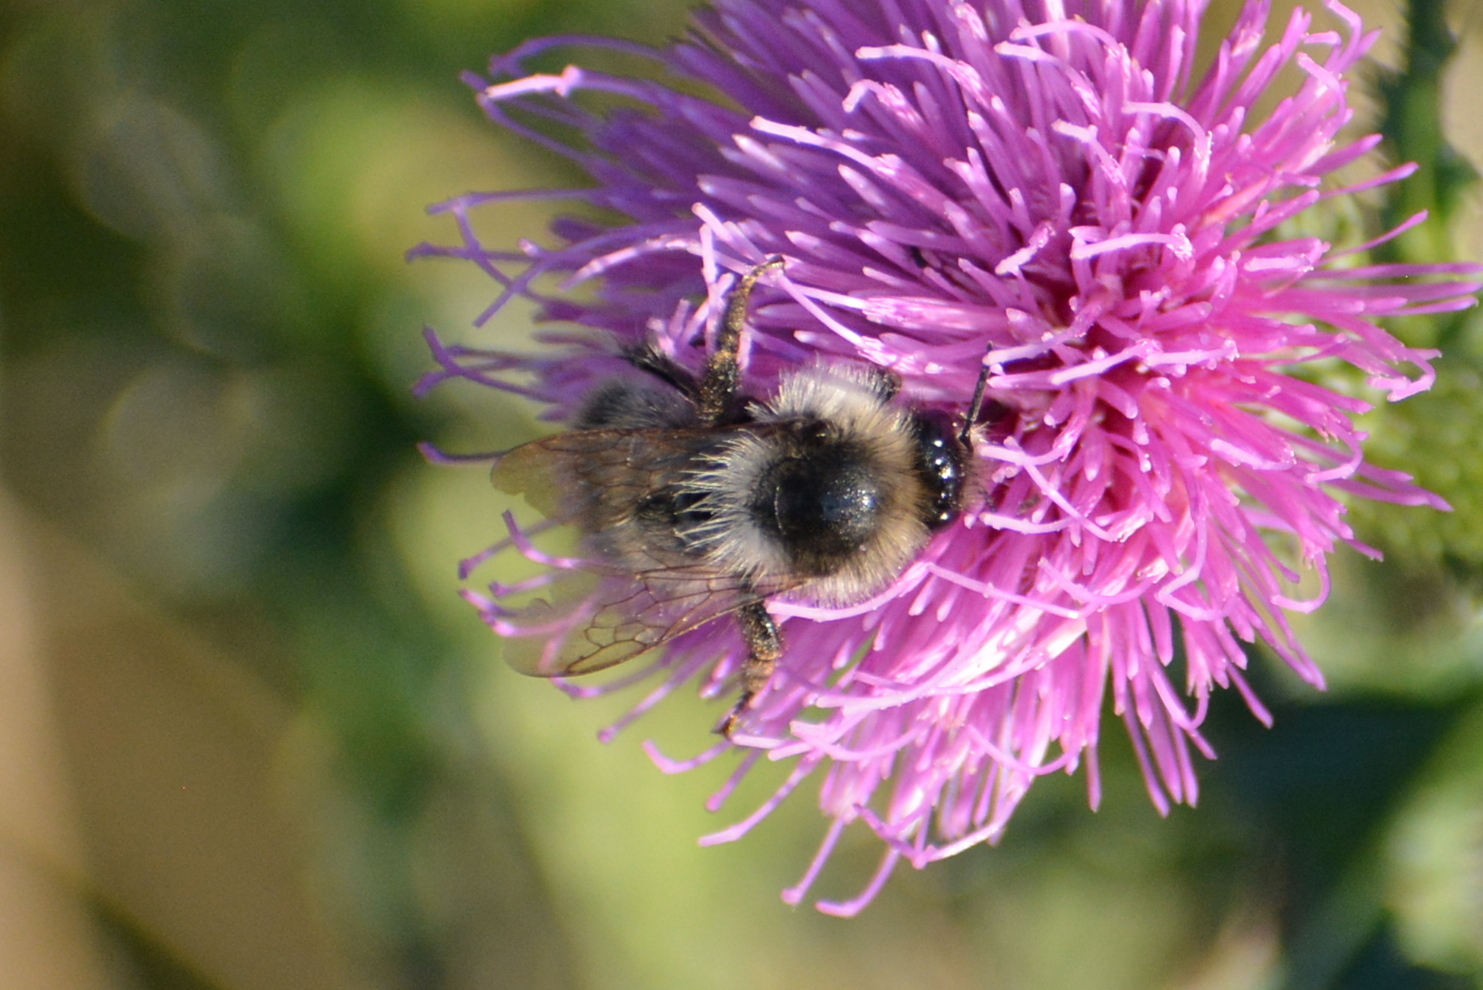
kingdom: Animalia
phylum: Arthropoda
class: Insecta
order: Hymenoptera
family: Apidae
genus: Bombus
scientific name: Bombus sylvarum
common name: Shrill carder bee
